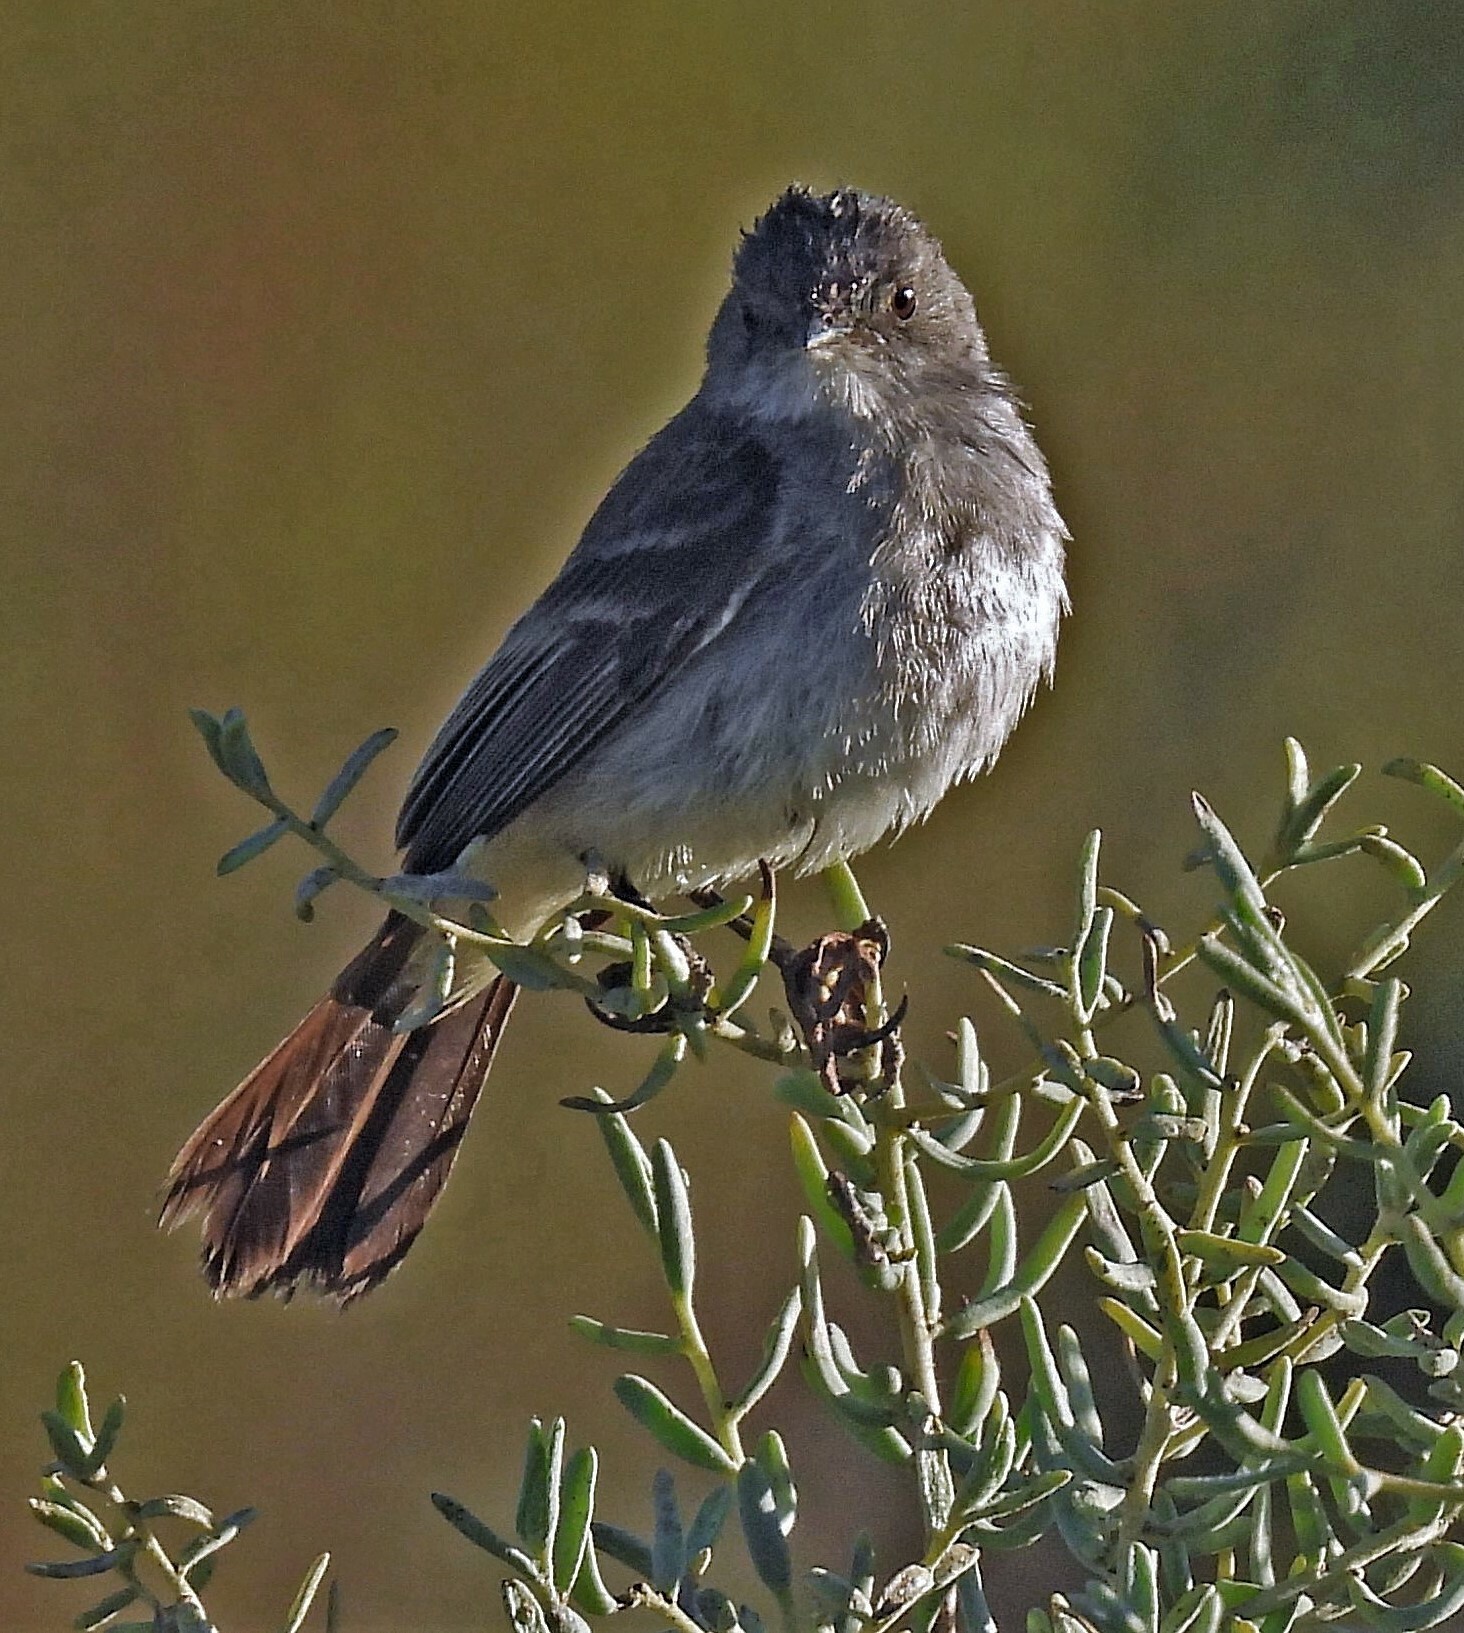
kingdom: Animalia
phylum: Chordata
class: Aves
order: Passeriformes
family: Tyrannidae
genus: Serpophaga
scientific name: Serpophaga nigricans
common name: Sooty tyrannulet
